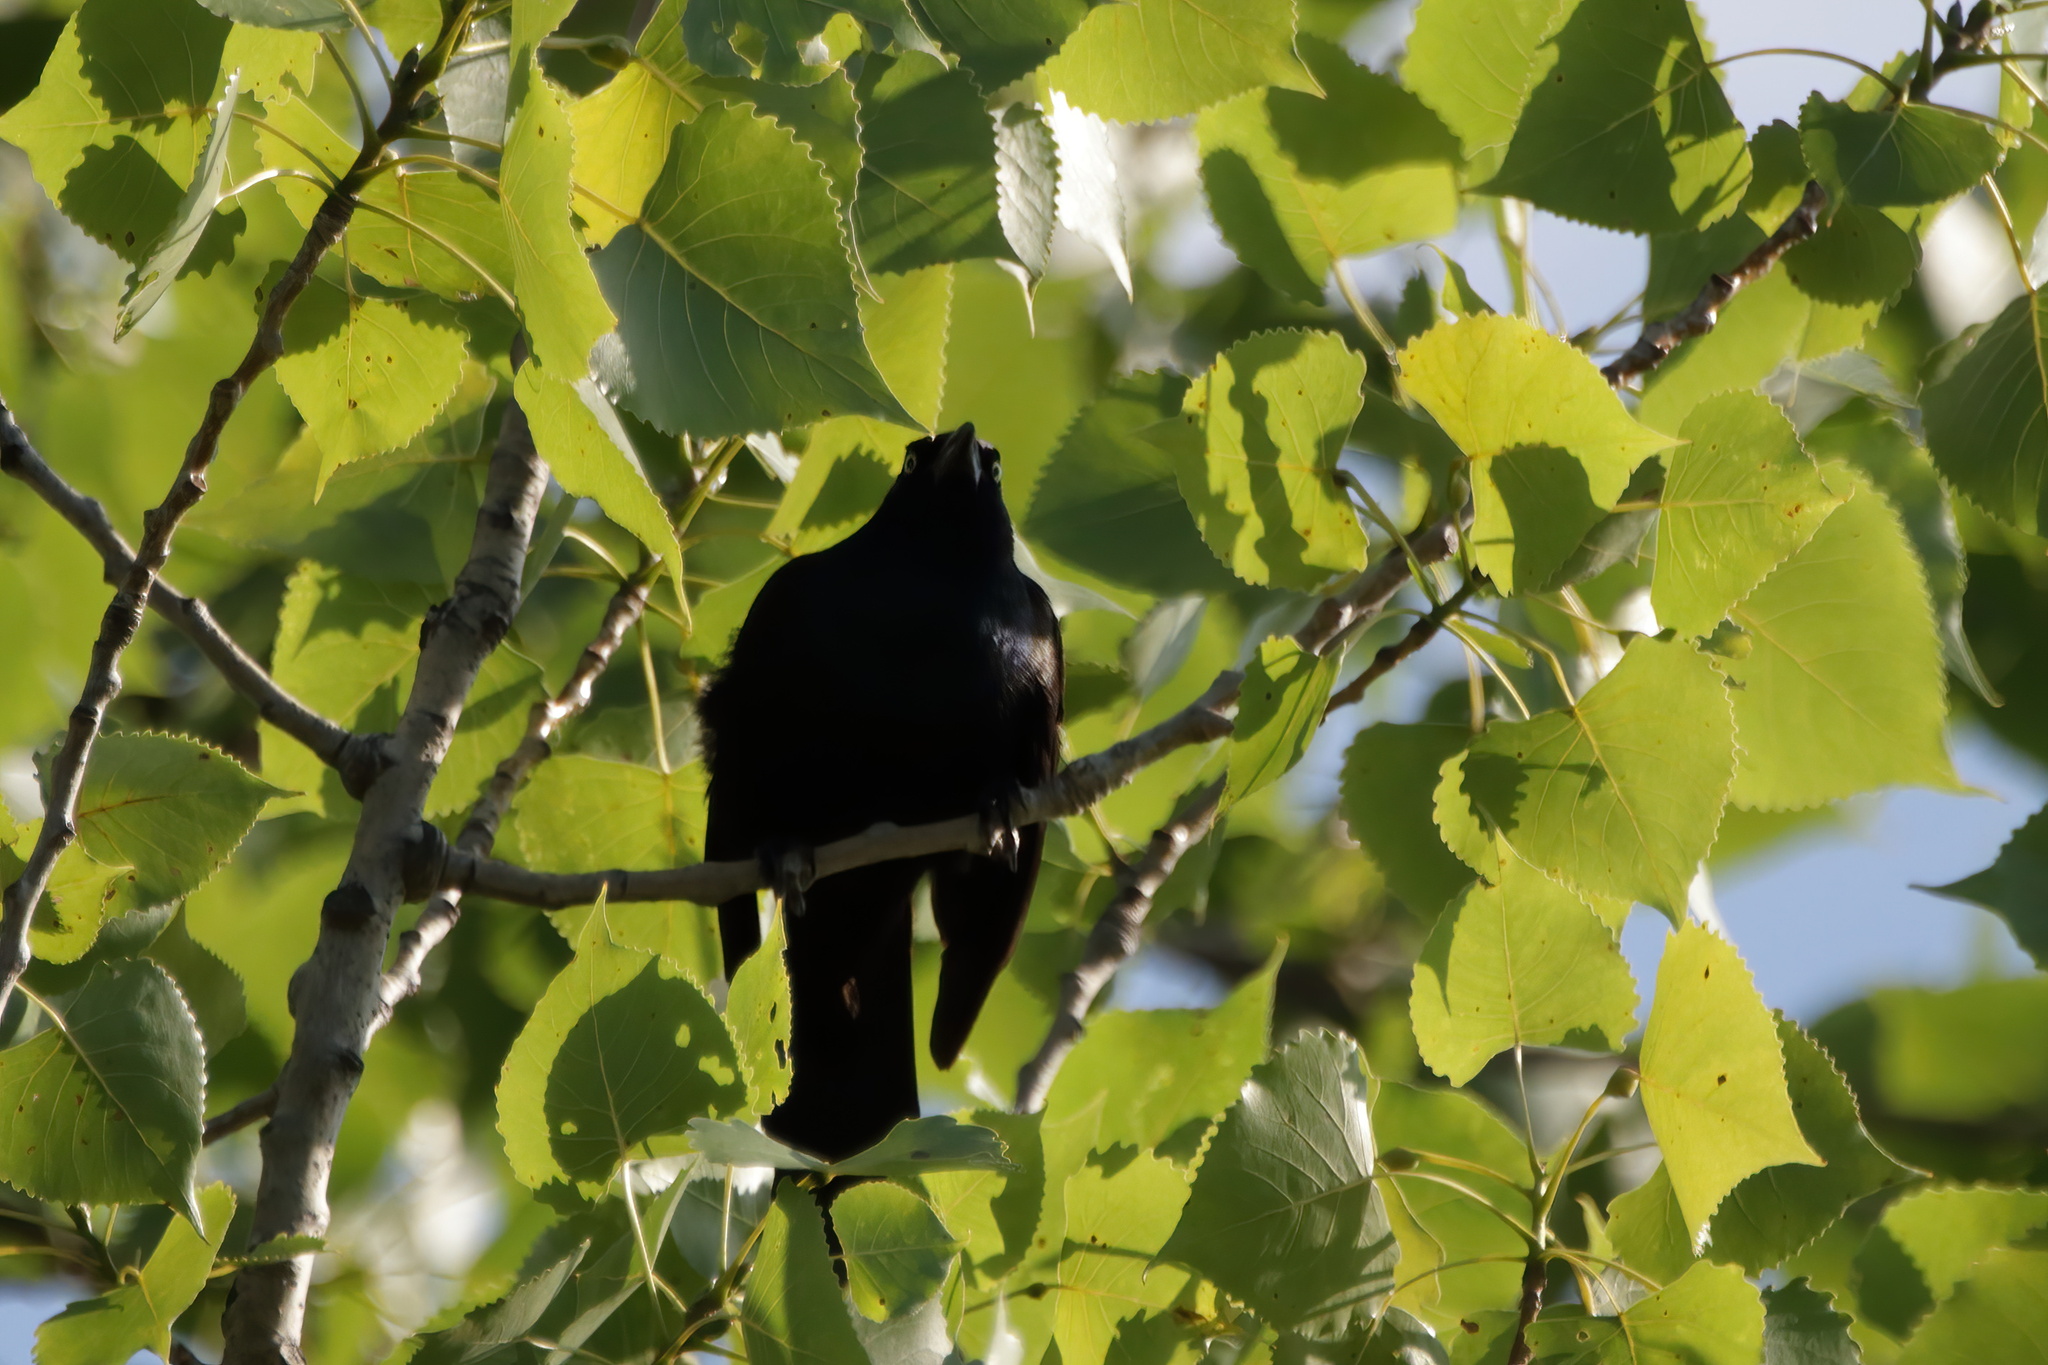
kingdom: Animalia
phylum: Chordata
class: Aves
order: Passeriformes
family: Icteridae
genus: Quiscalus
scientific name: Quiscalus quiscula
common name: Common grackle
